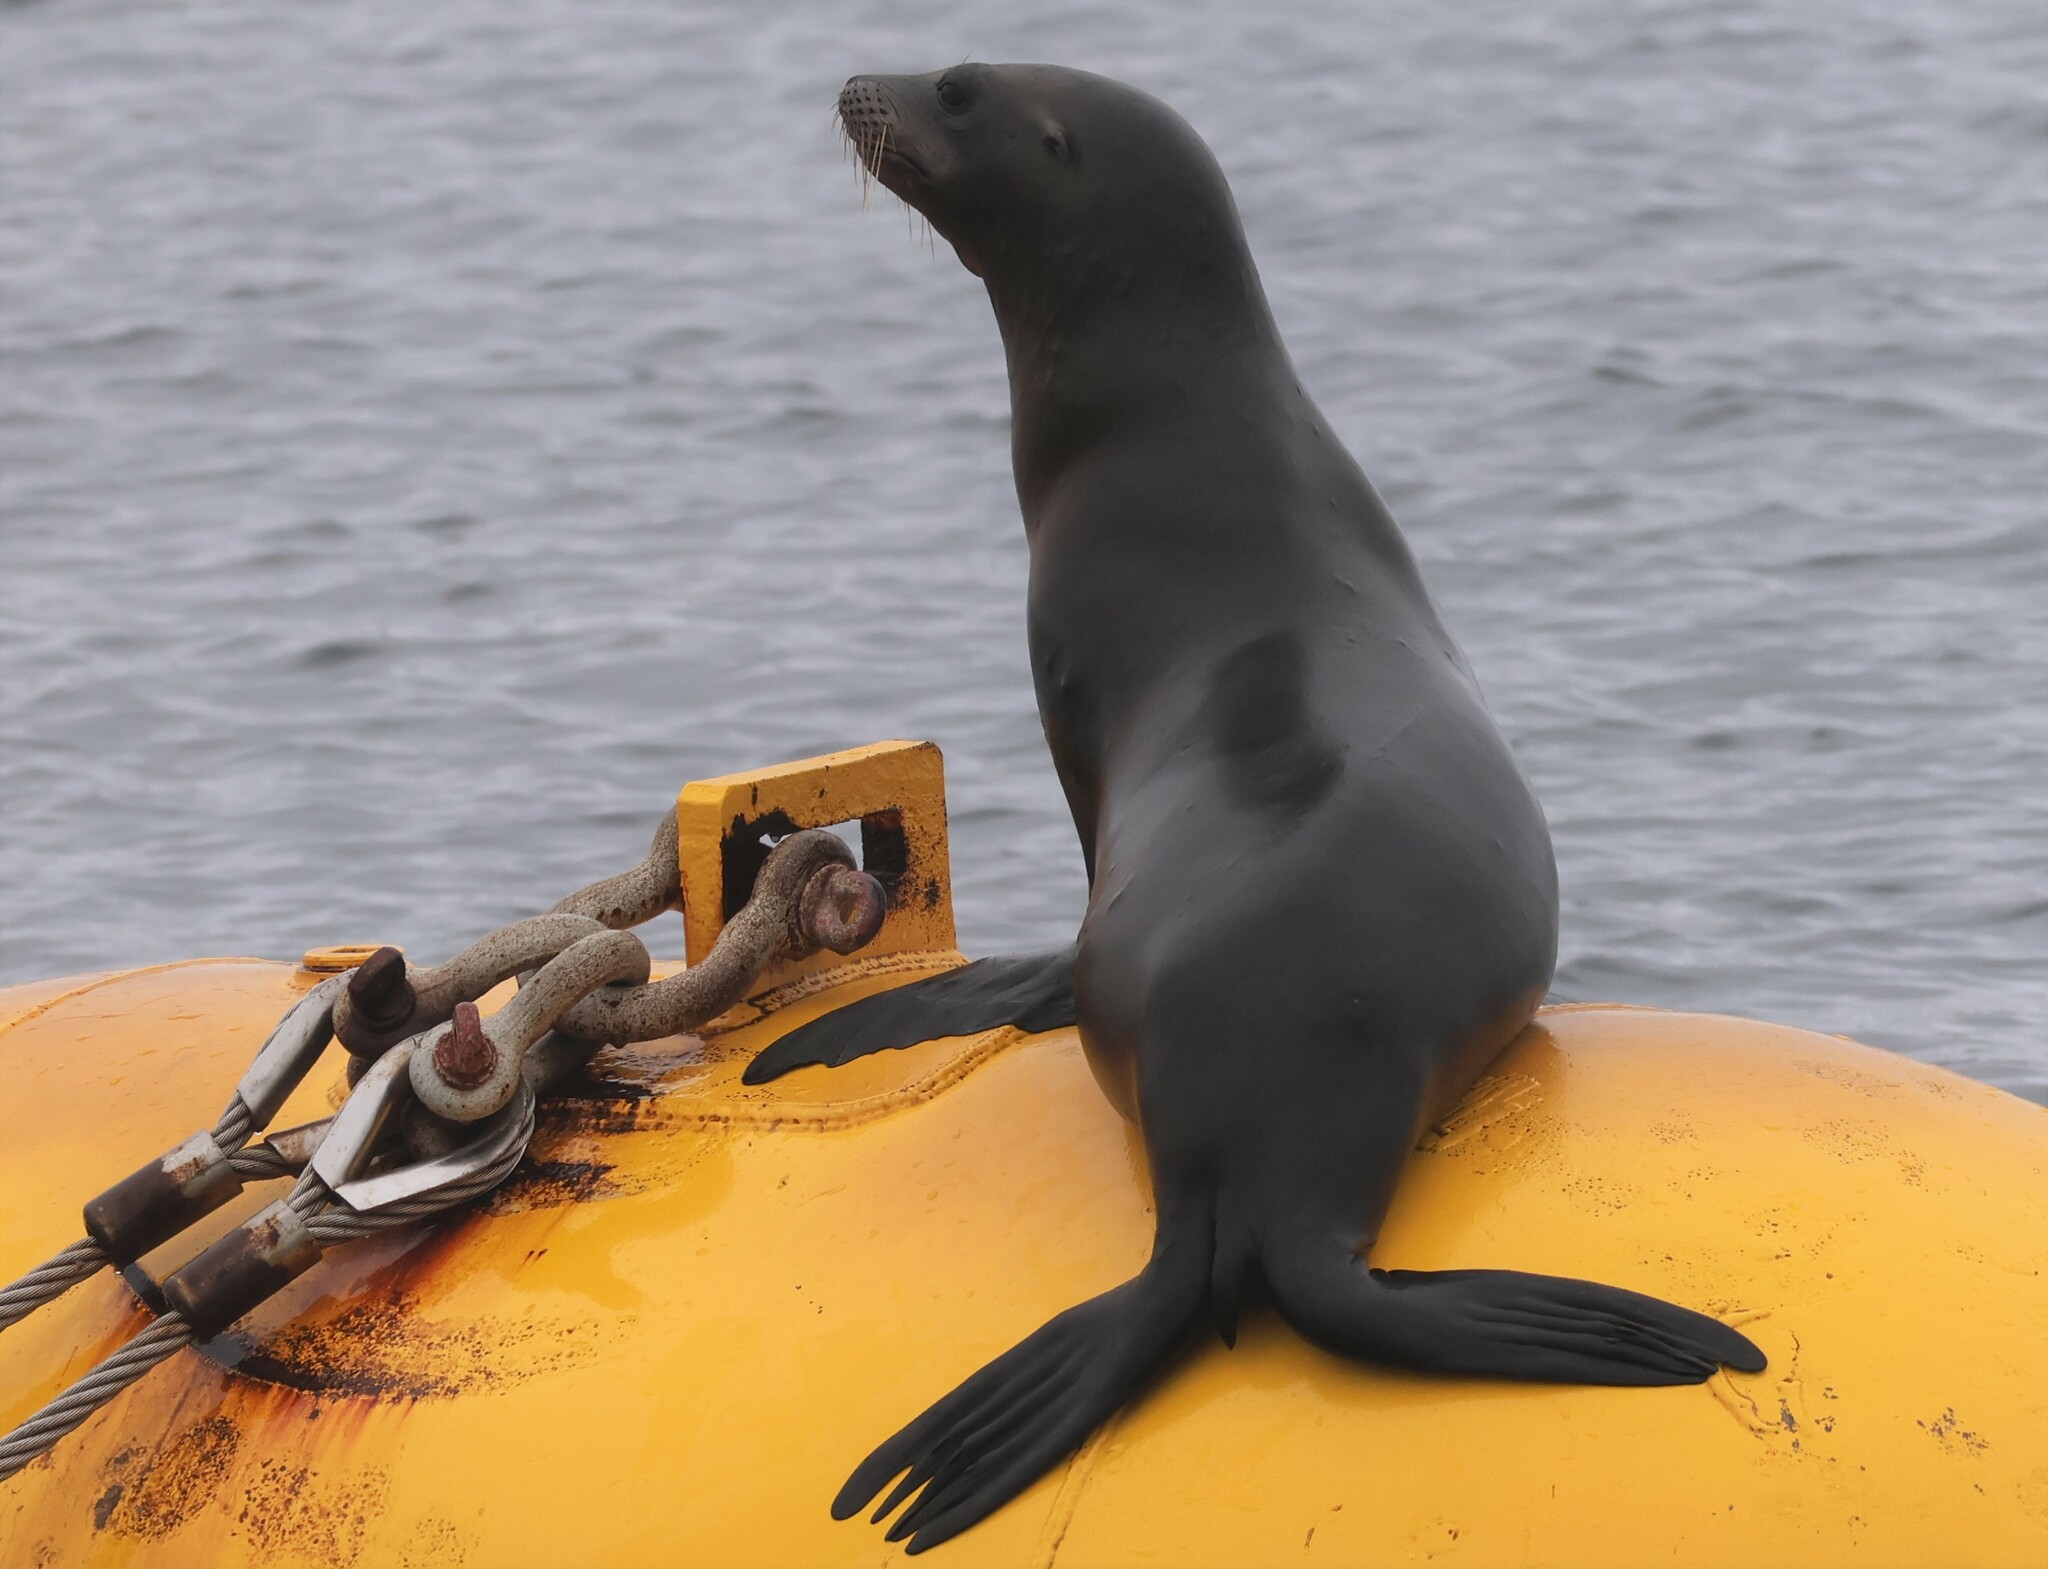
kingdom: Animalia
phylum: Chordata
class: Mammalia
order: Carnivora
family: Otariidae
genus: Zalophus
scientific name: Zalophus californianus
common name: California sea lion
